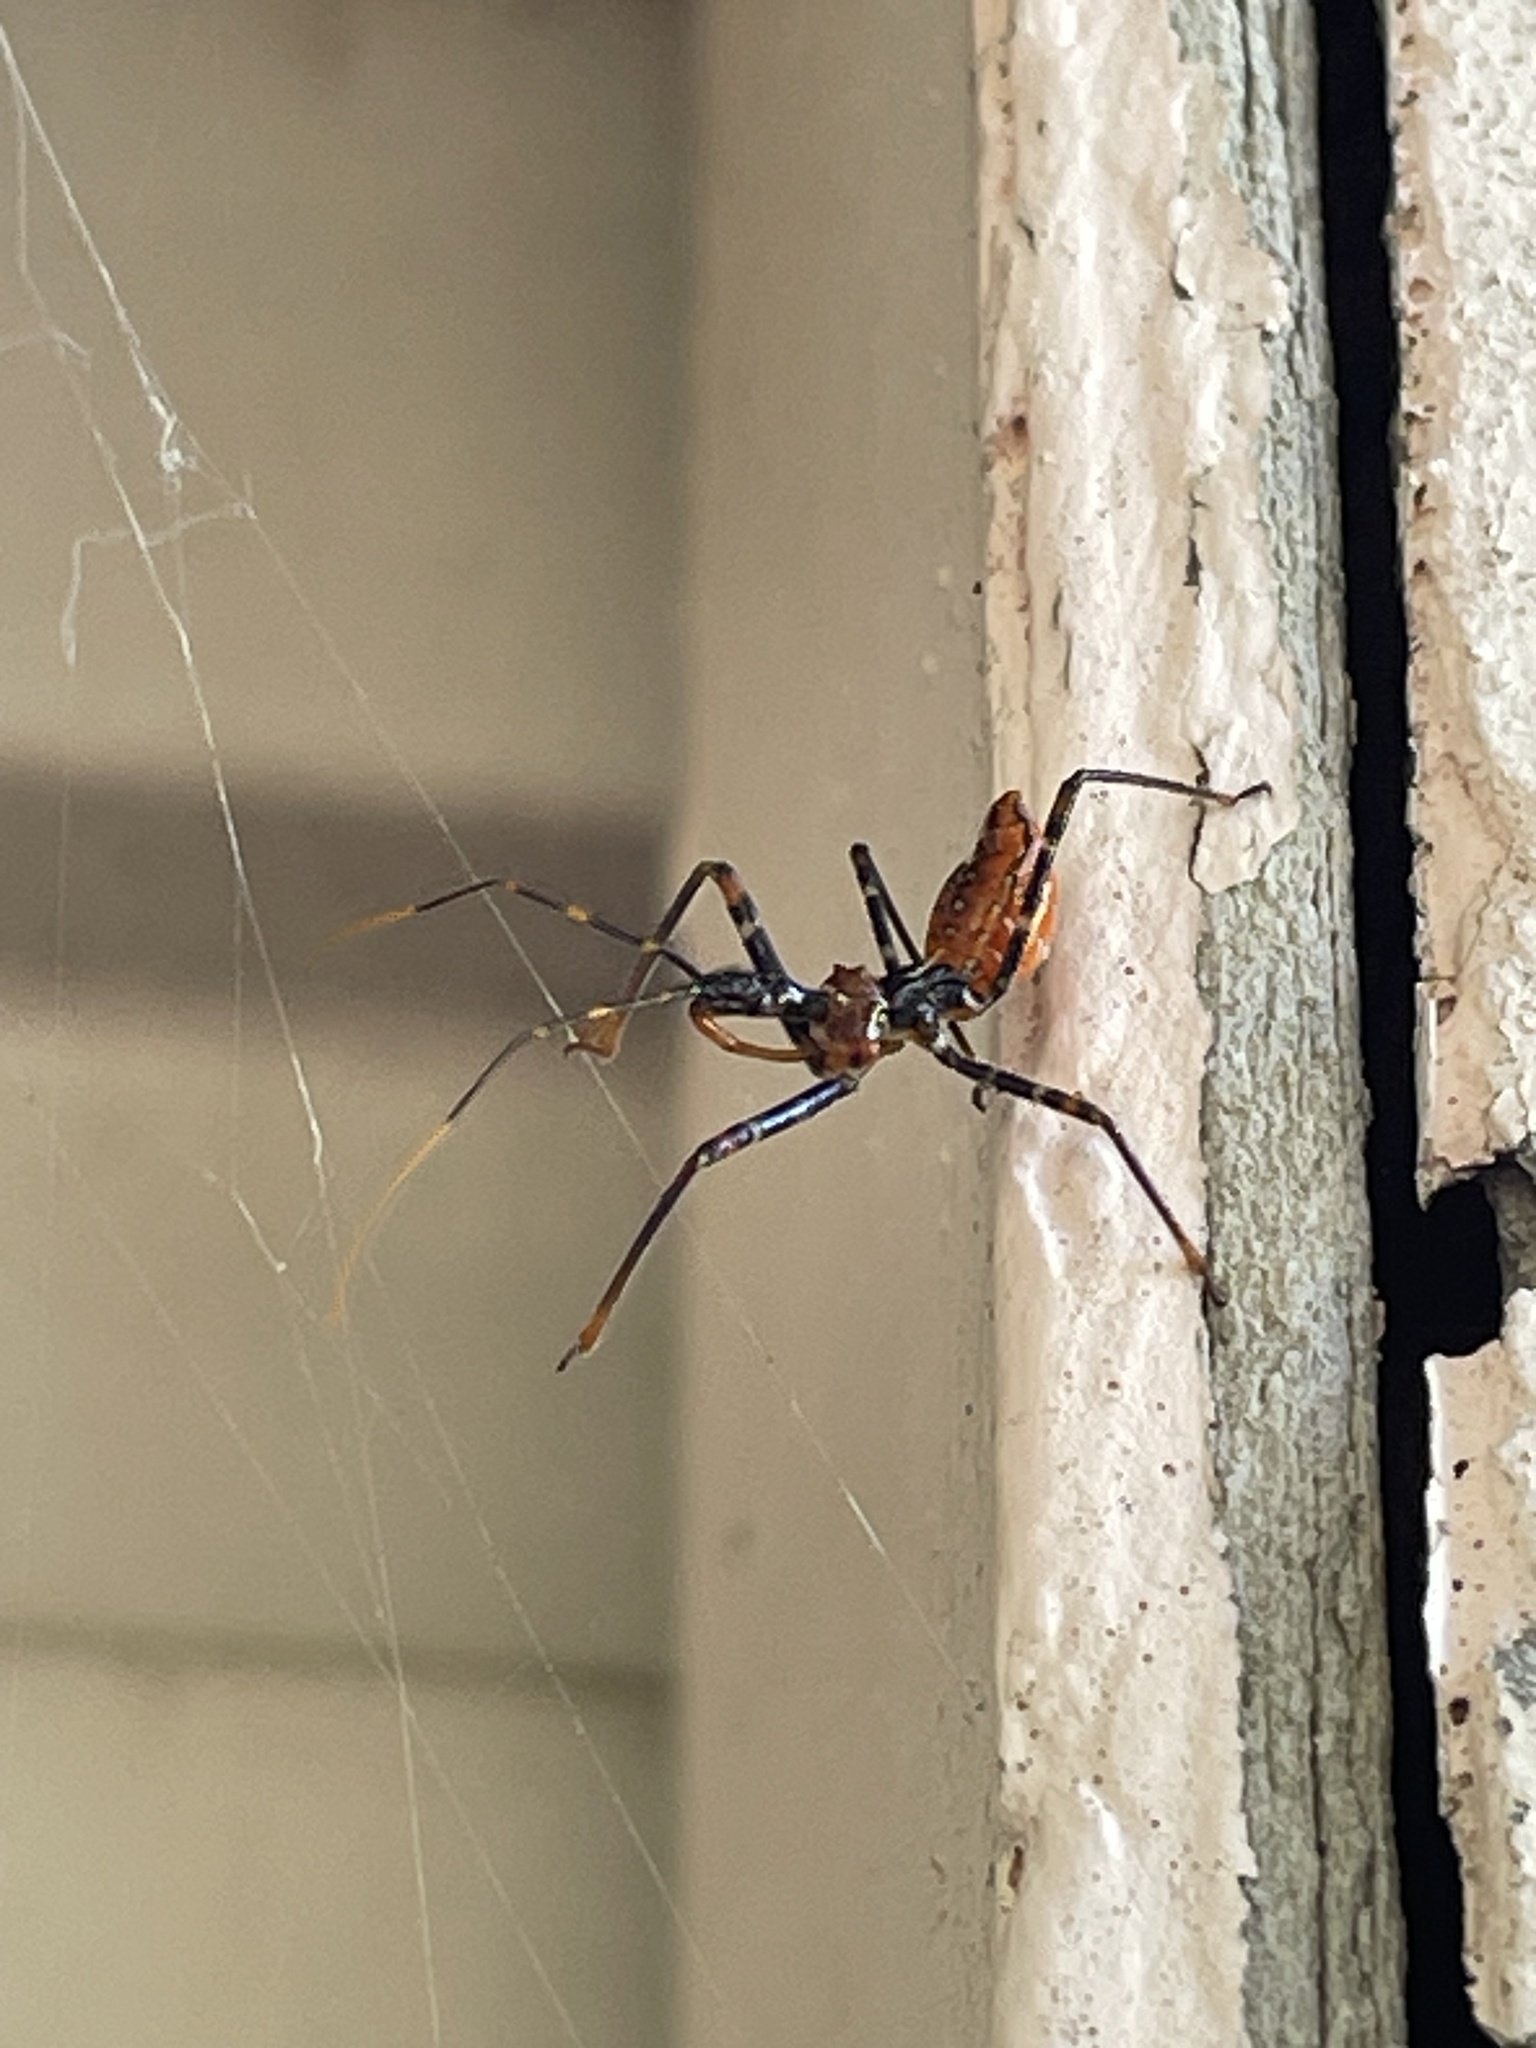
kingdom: Animalia
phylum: Arthropoda
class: Insecta
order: Hemiptera
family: Reduviidae
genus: Pristhesancus
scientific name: Pristhesancus plagipennis
